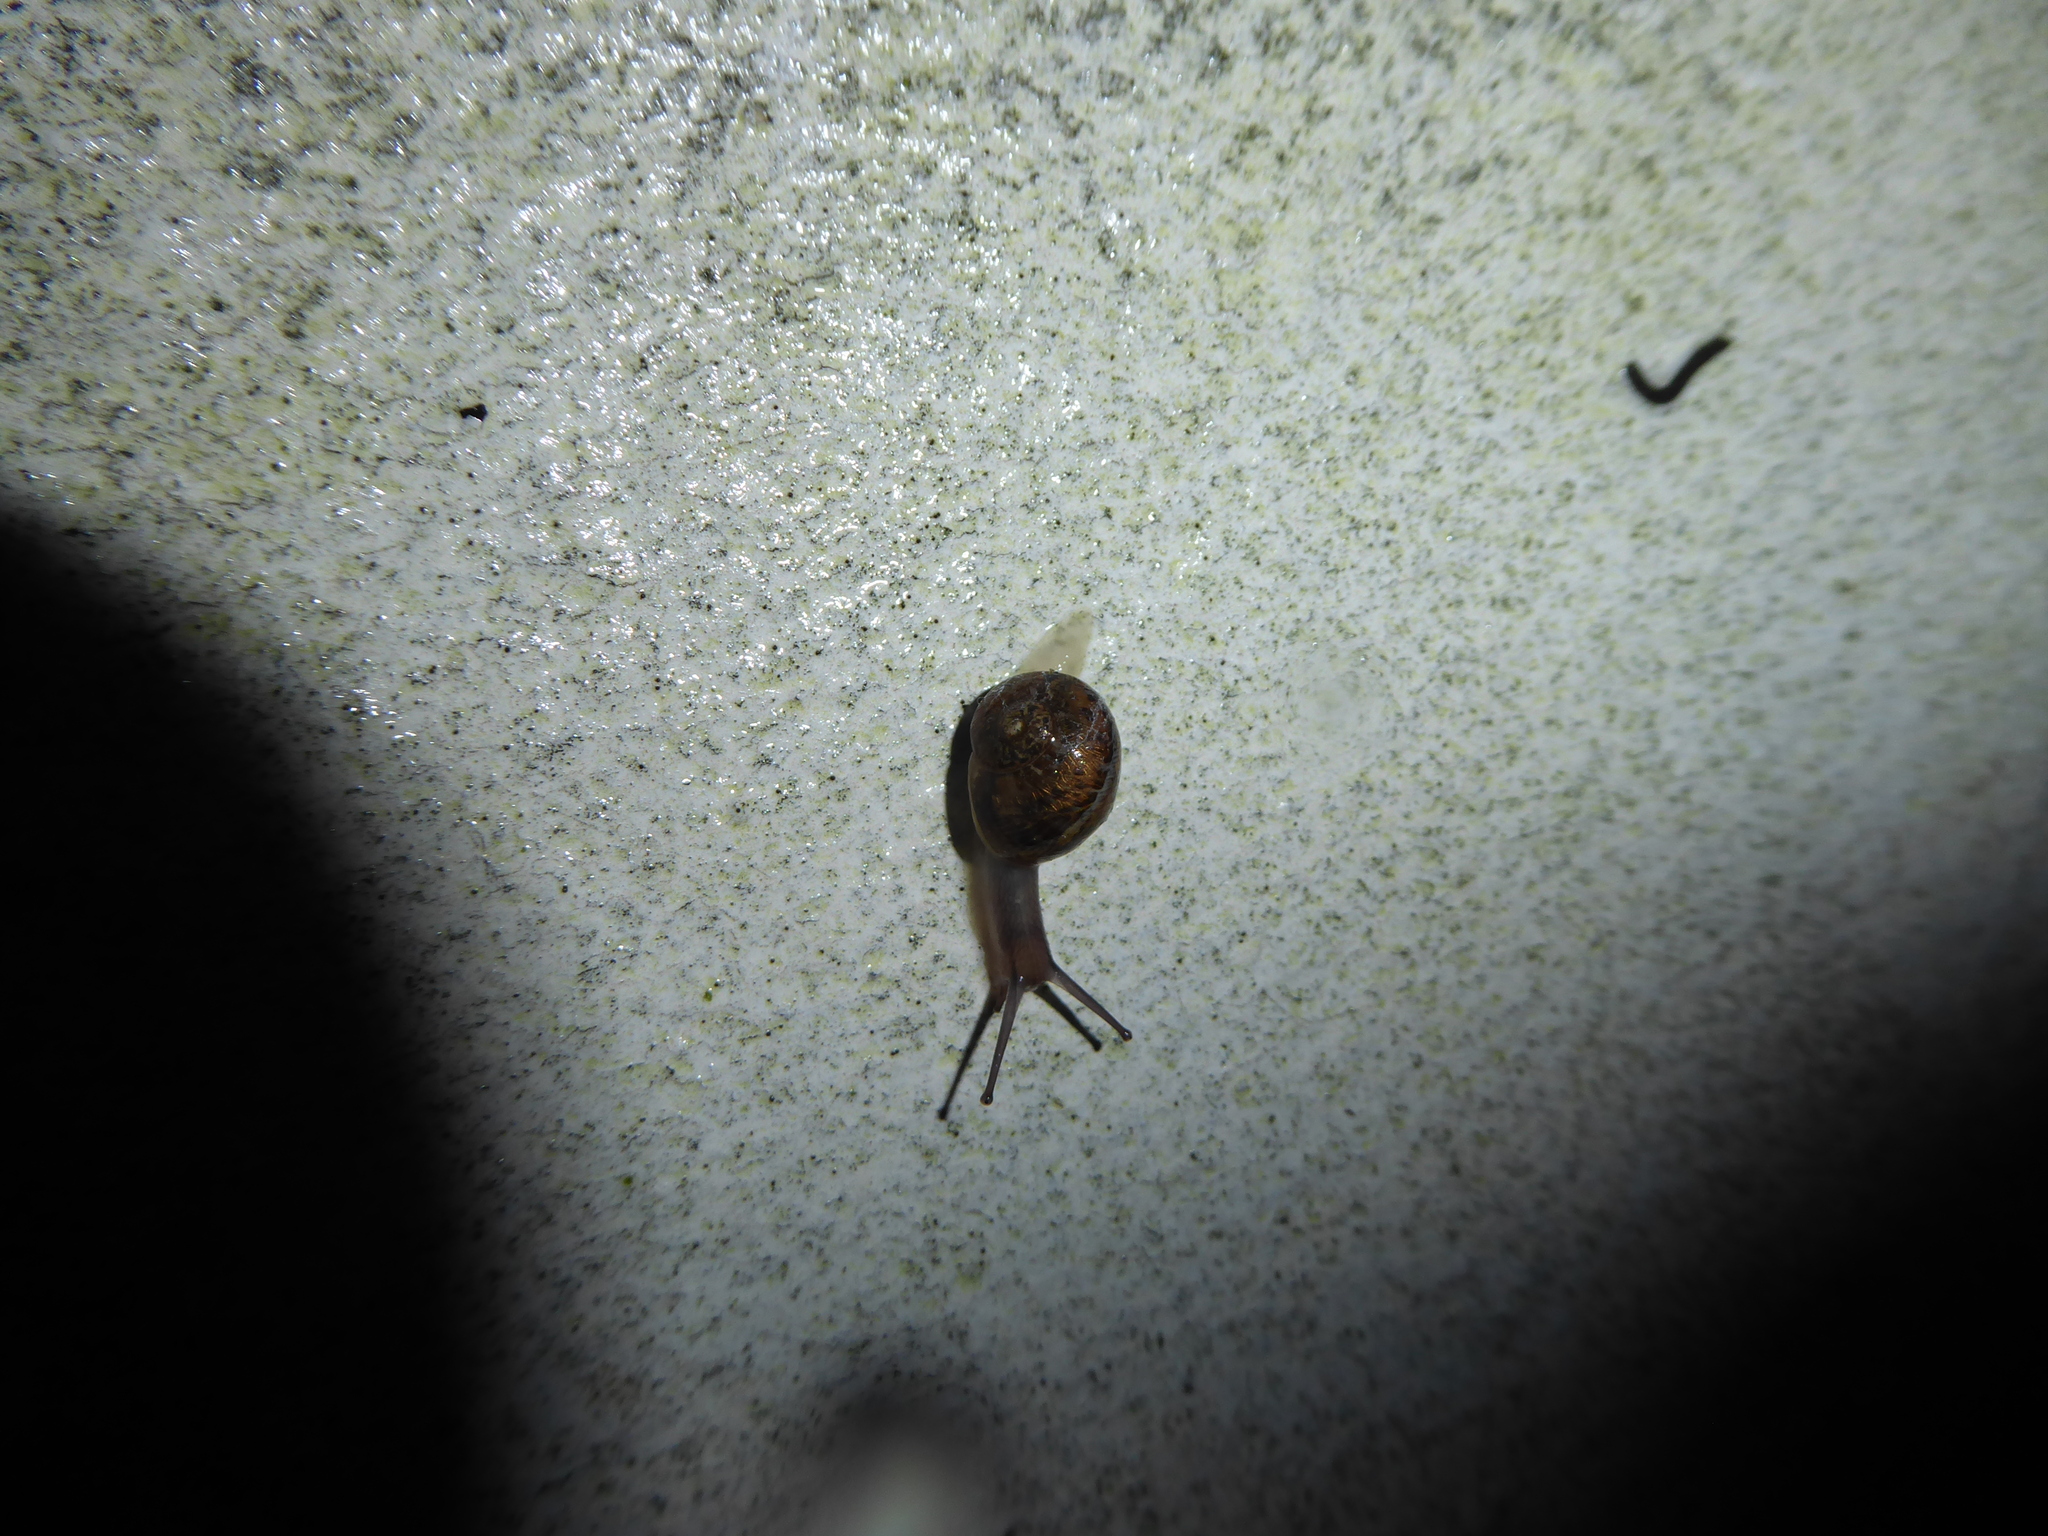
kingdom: Animalia
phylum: Mollusca
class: Gastropoda
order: Stylommatophora
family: Helicidae
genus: Cornu
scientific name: Cornu aspersum
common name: Brown garden snail
